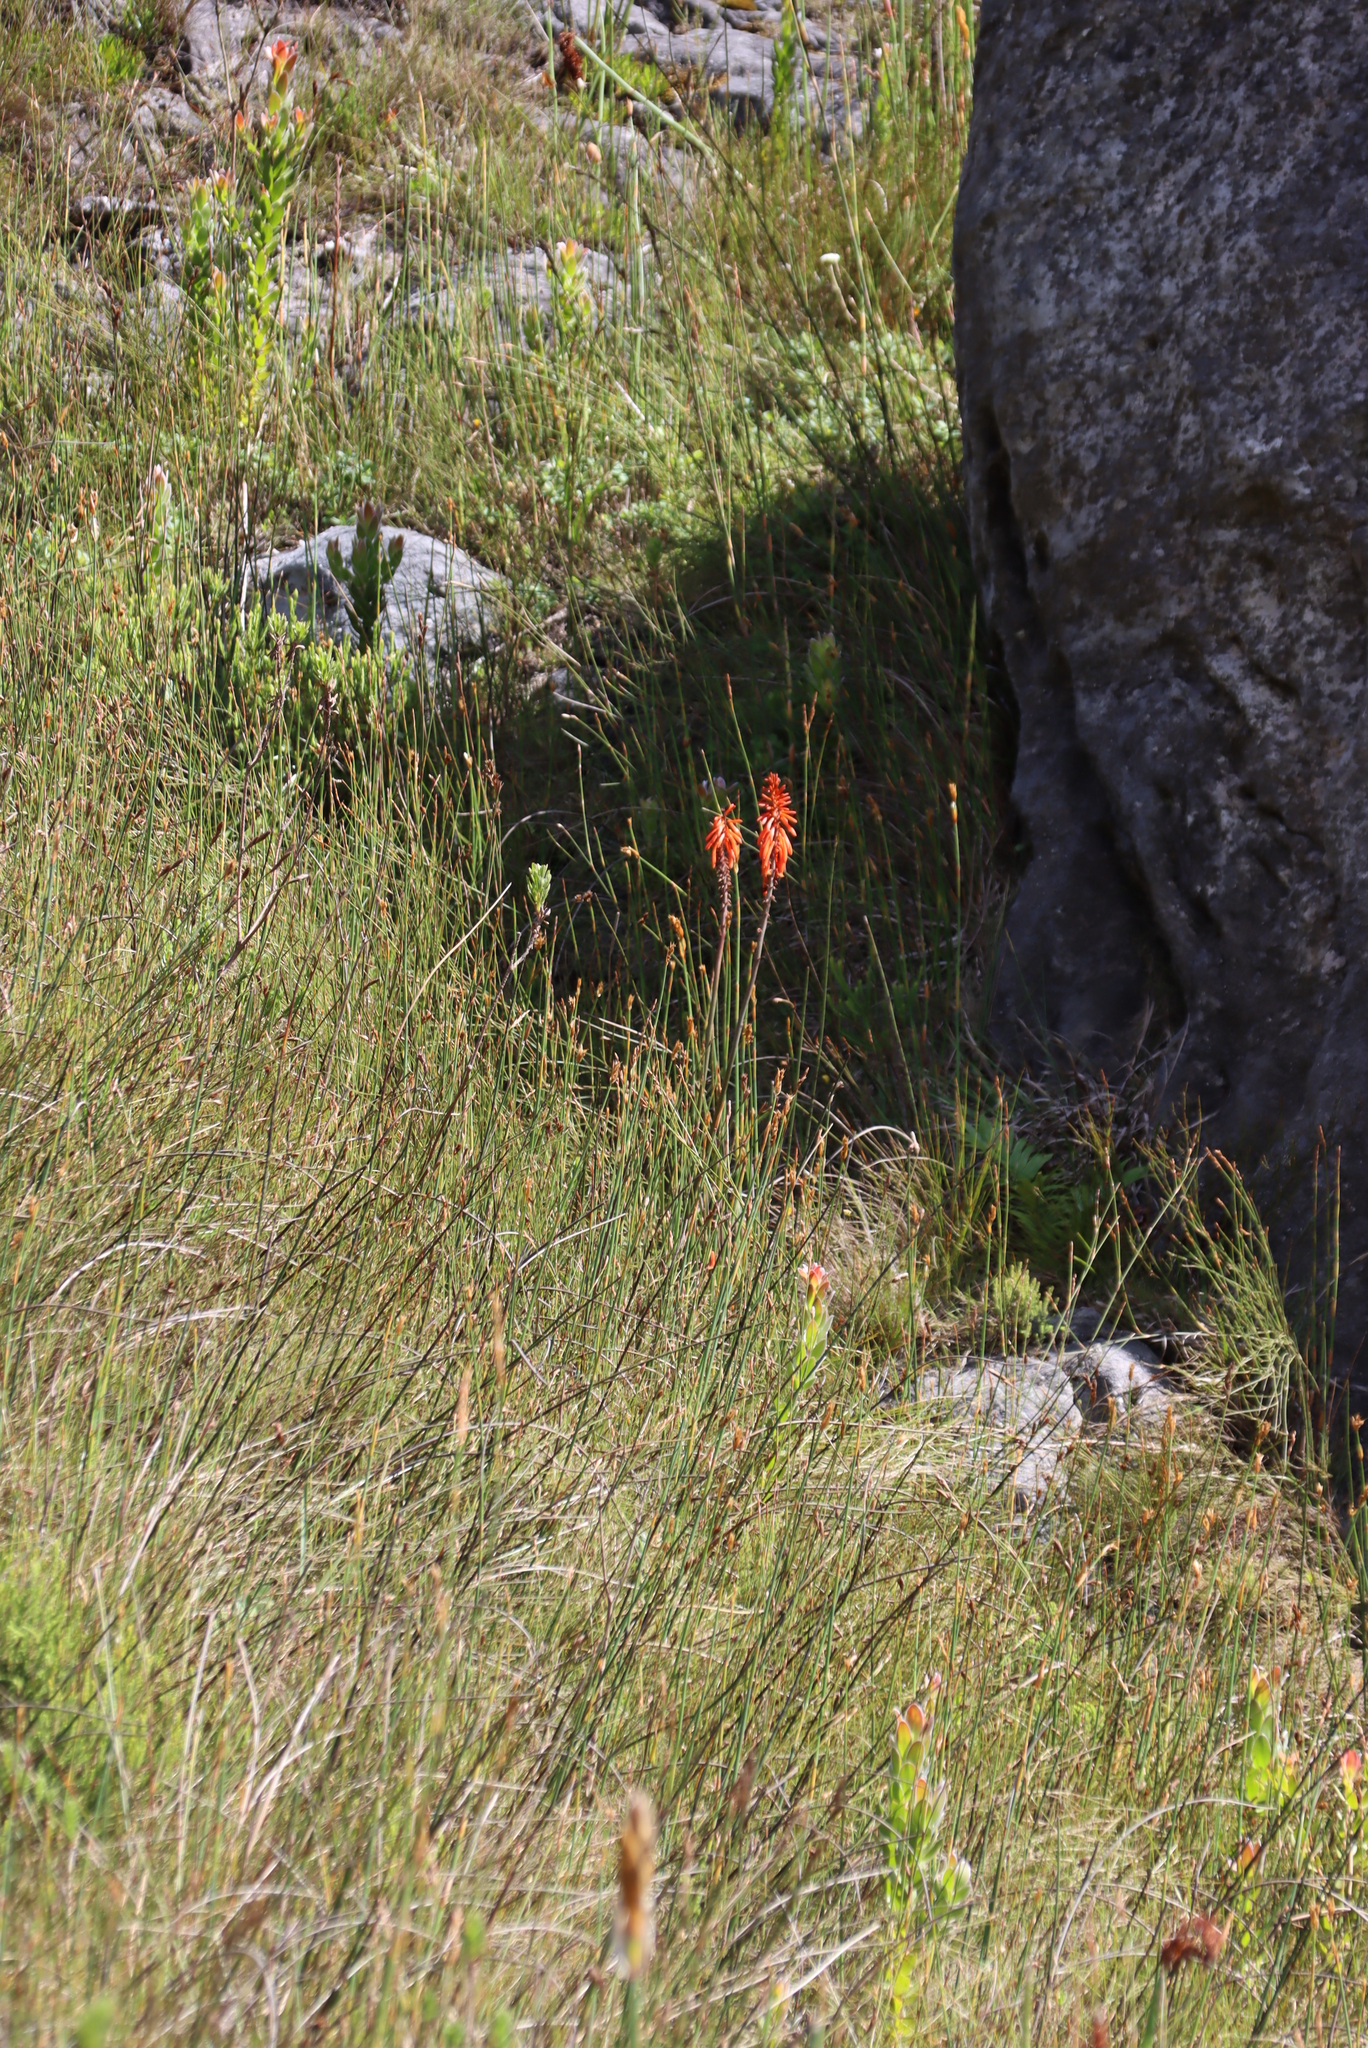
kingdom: Plantae
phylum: Tracheophyta
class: Liliopsida
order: Asparagales
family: Asphodelaceae
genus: Kniphofia
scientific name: Kniphofia uvaria
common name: Red-hot-poker
